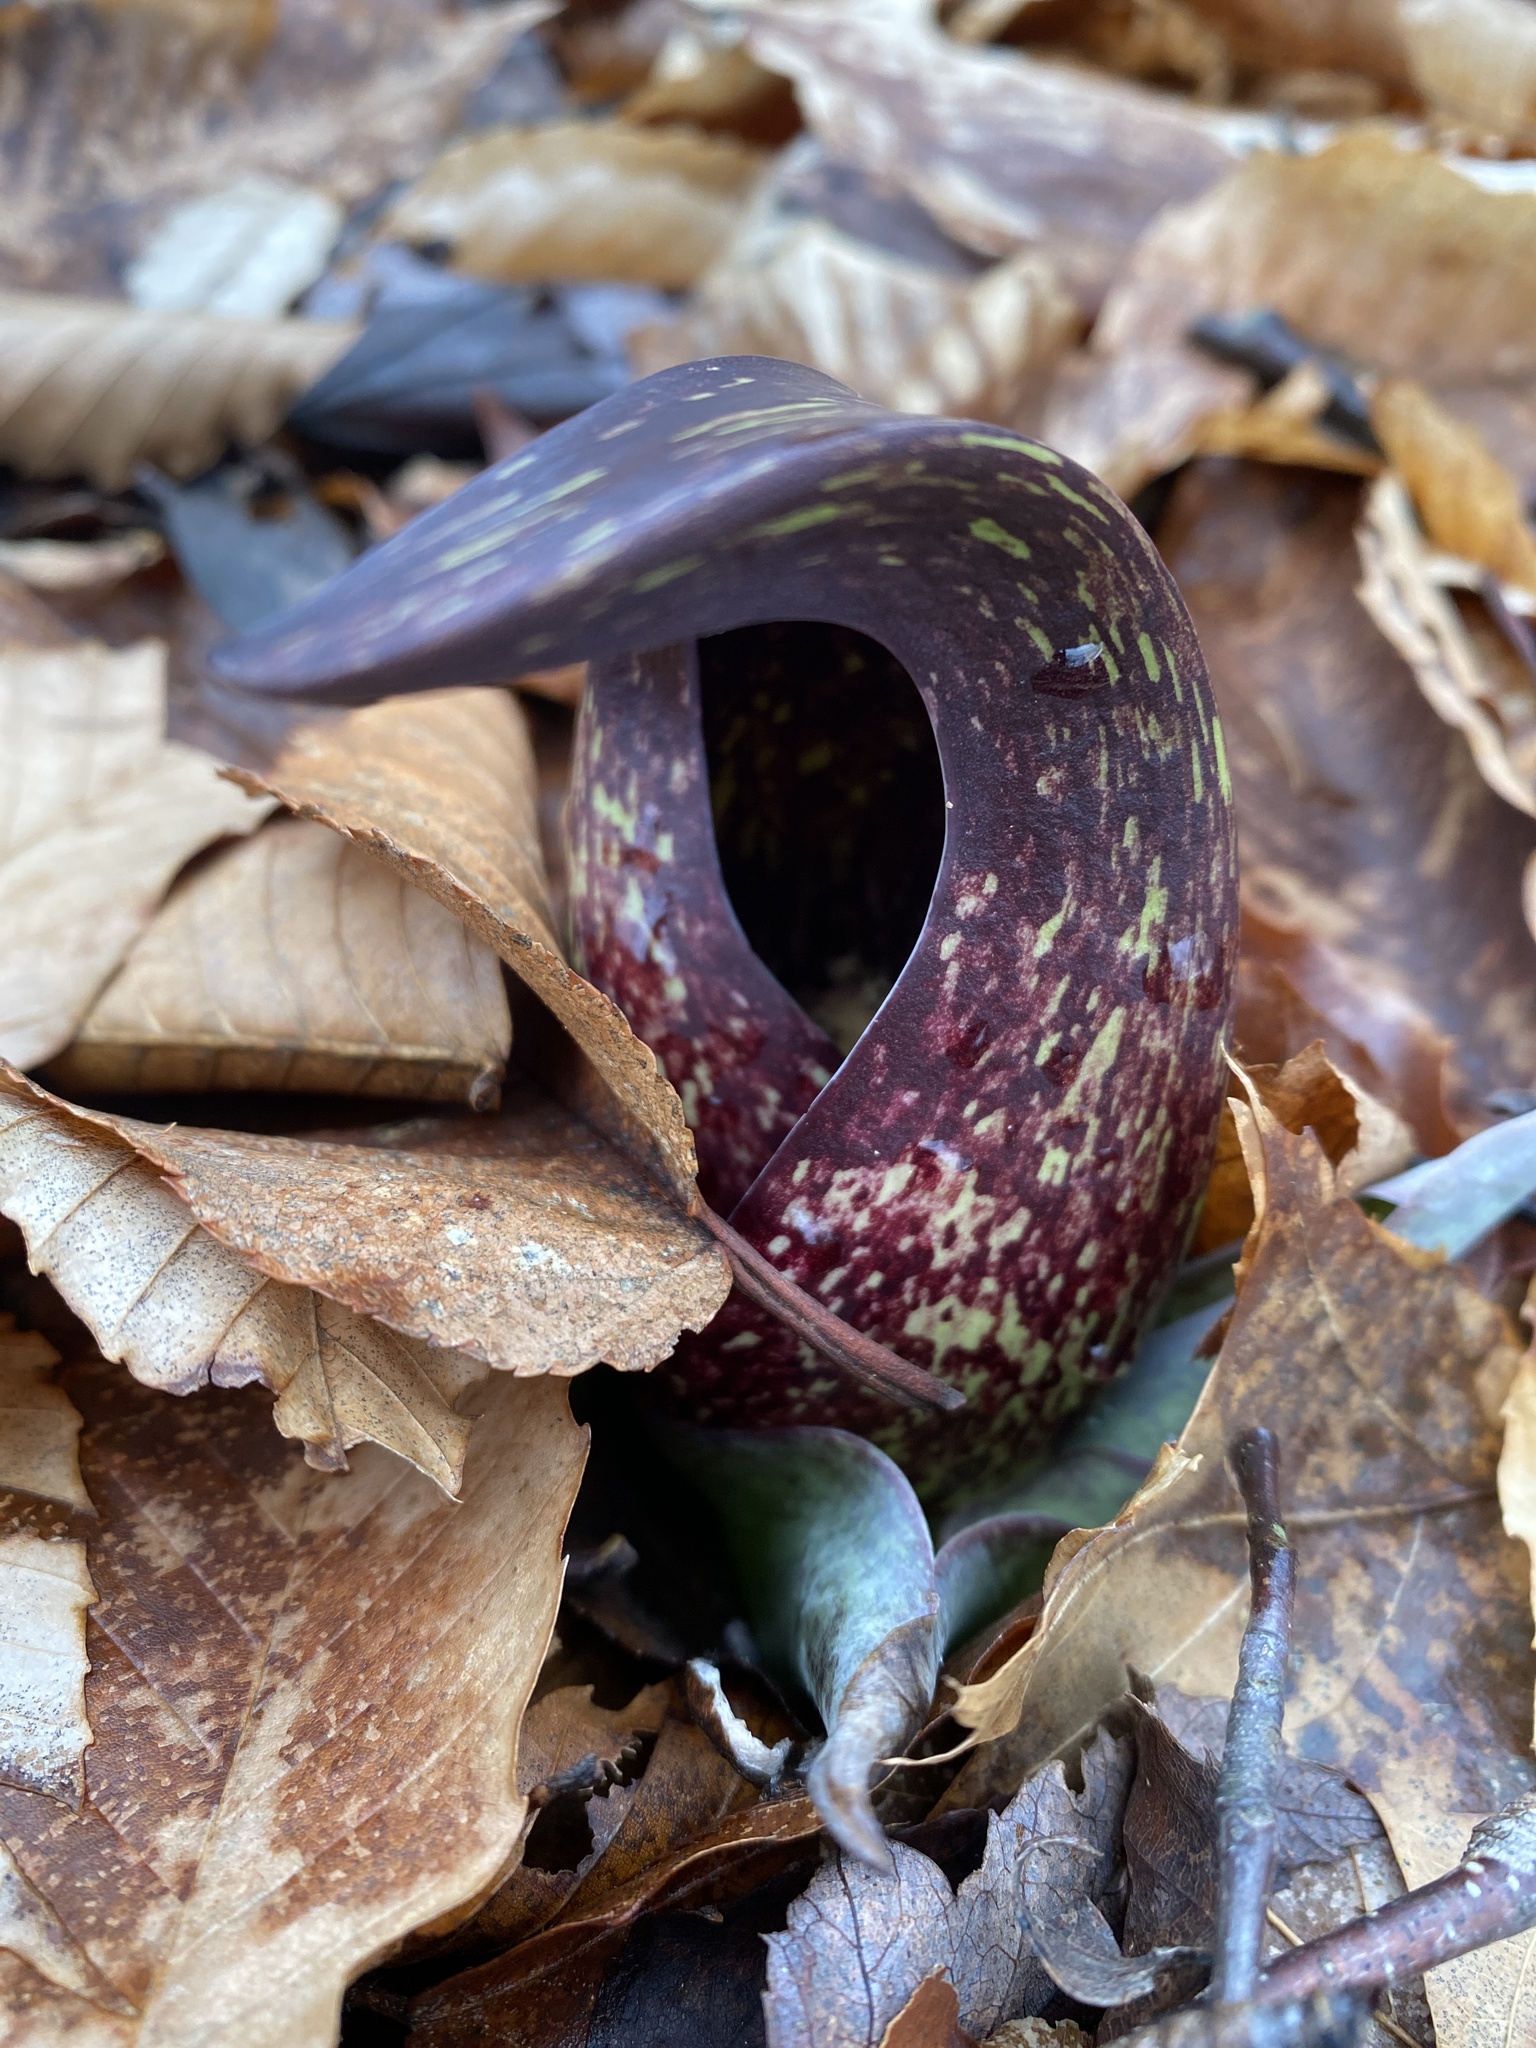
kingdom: Plantae
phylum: Tracheophyta
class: Liliopsida
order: Alismatales
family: Araceae
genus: Symplocarpus
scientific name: Symplocarpus foetidus
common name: Eastern skunk cabbage
